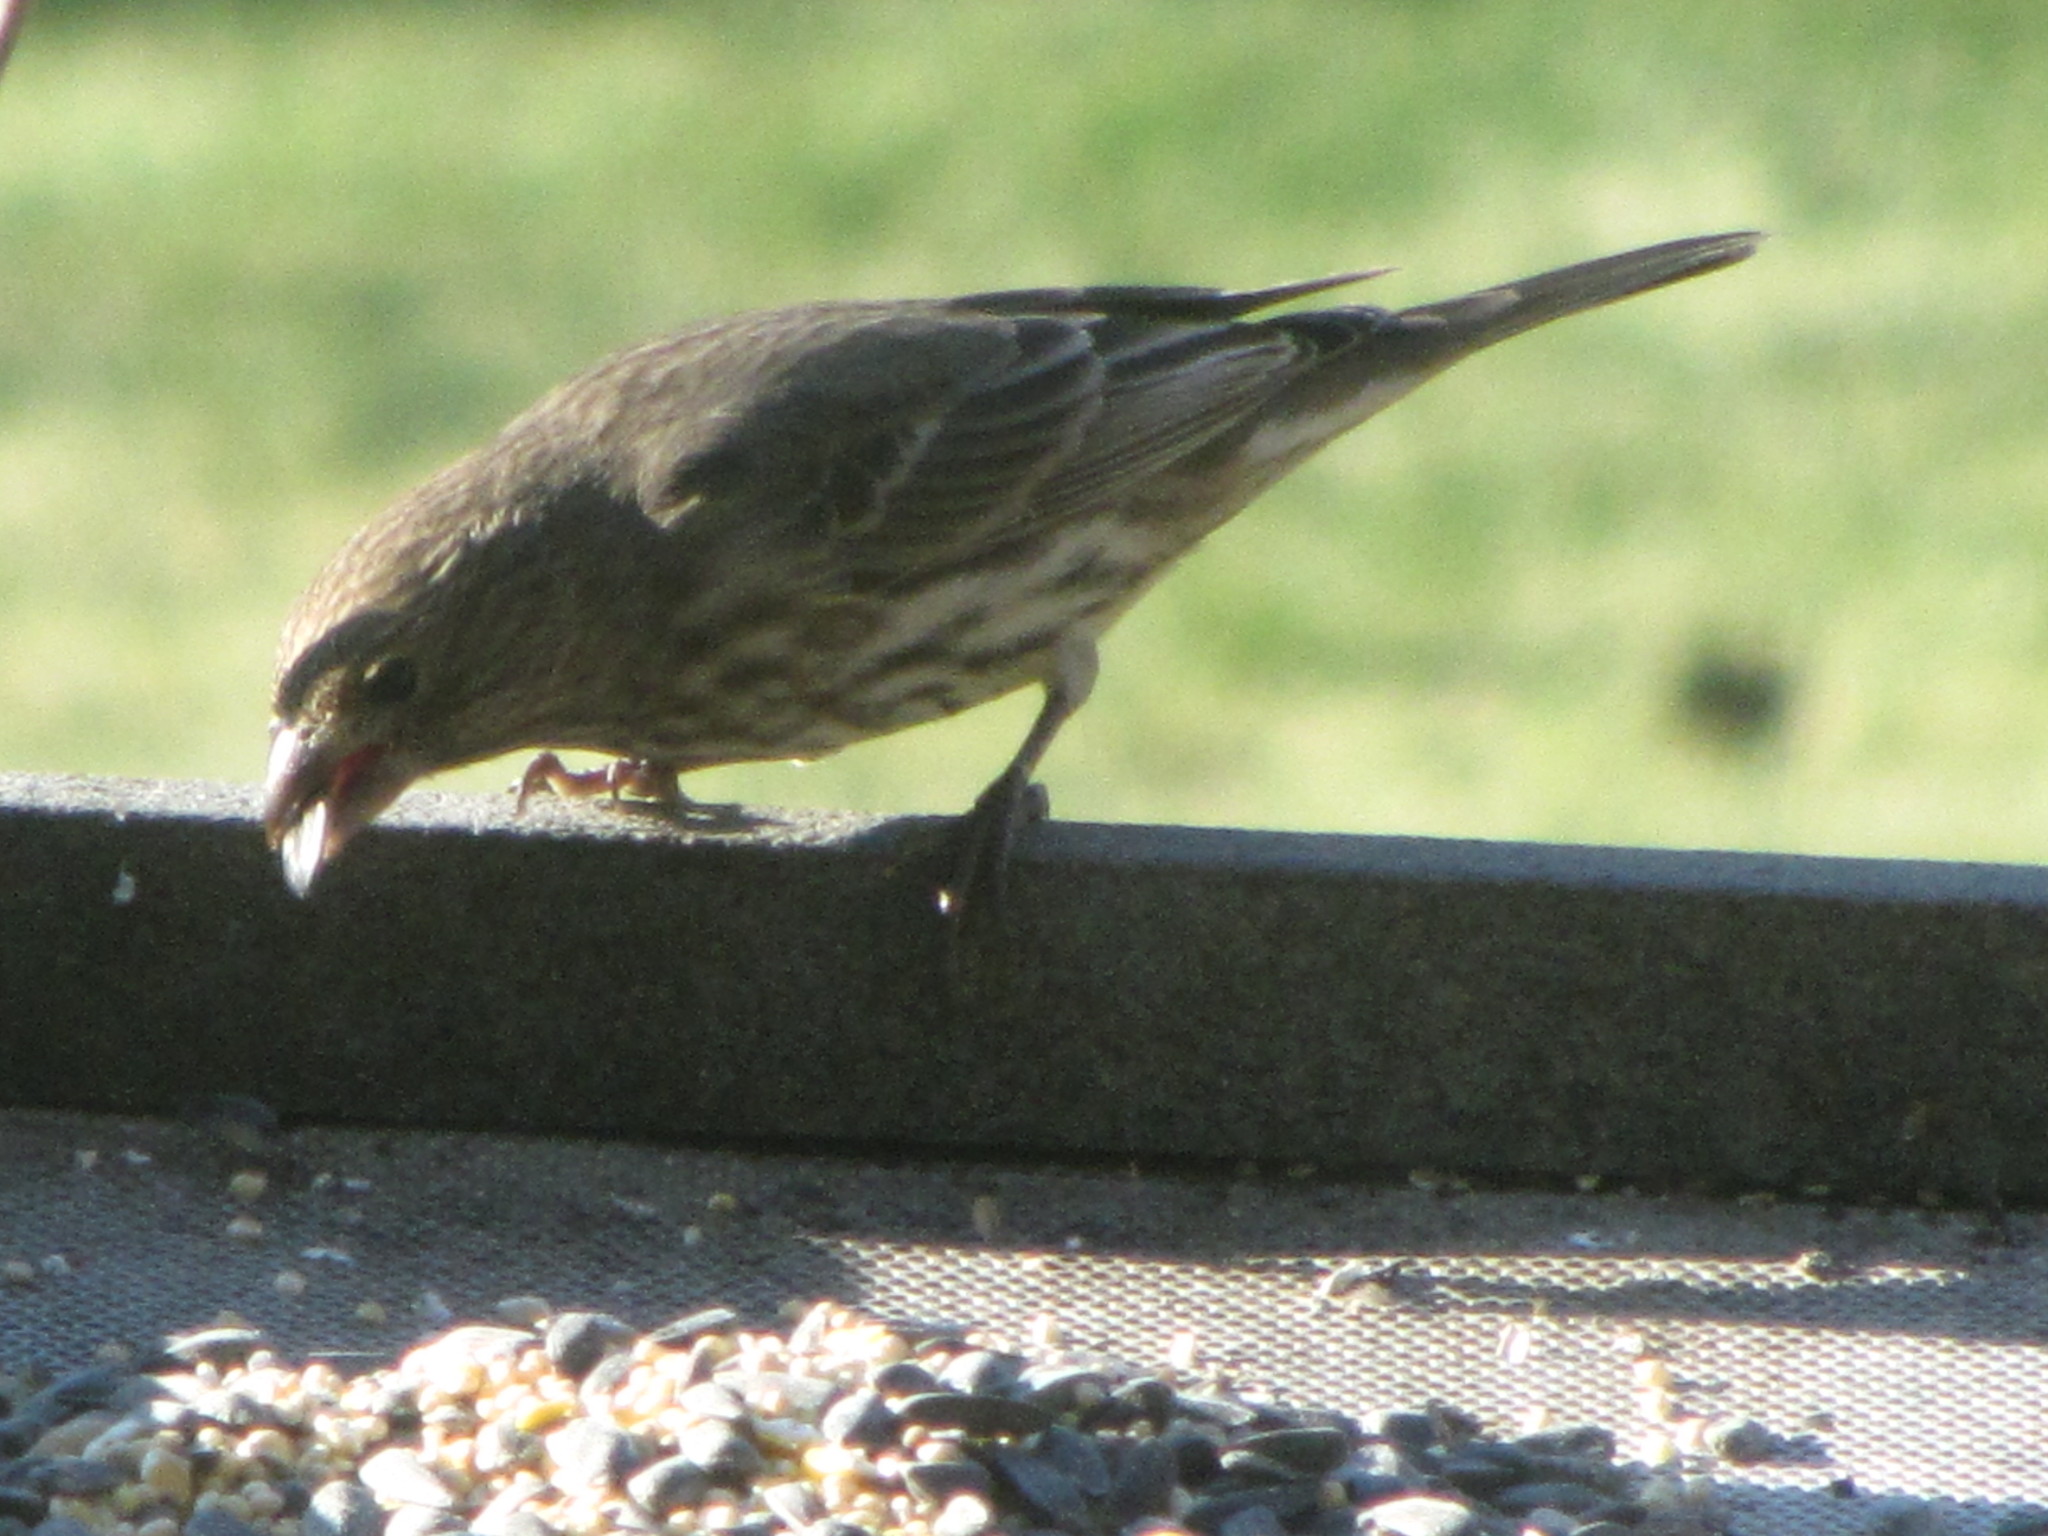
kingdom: Animalia
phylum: Chordata
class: Aves
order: Passeriformes
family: Fringillidae
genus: Haemorhous
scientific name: Haemorhous mexicanus
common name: House finch
